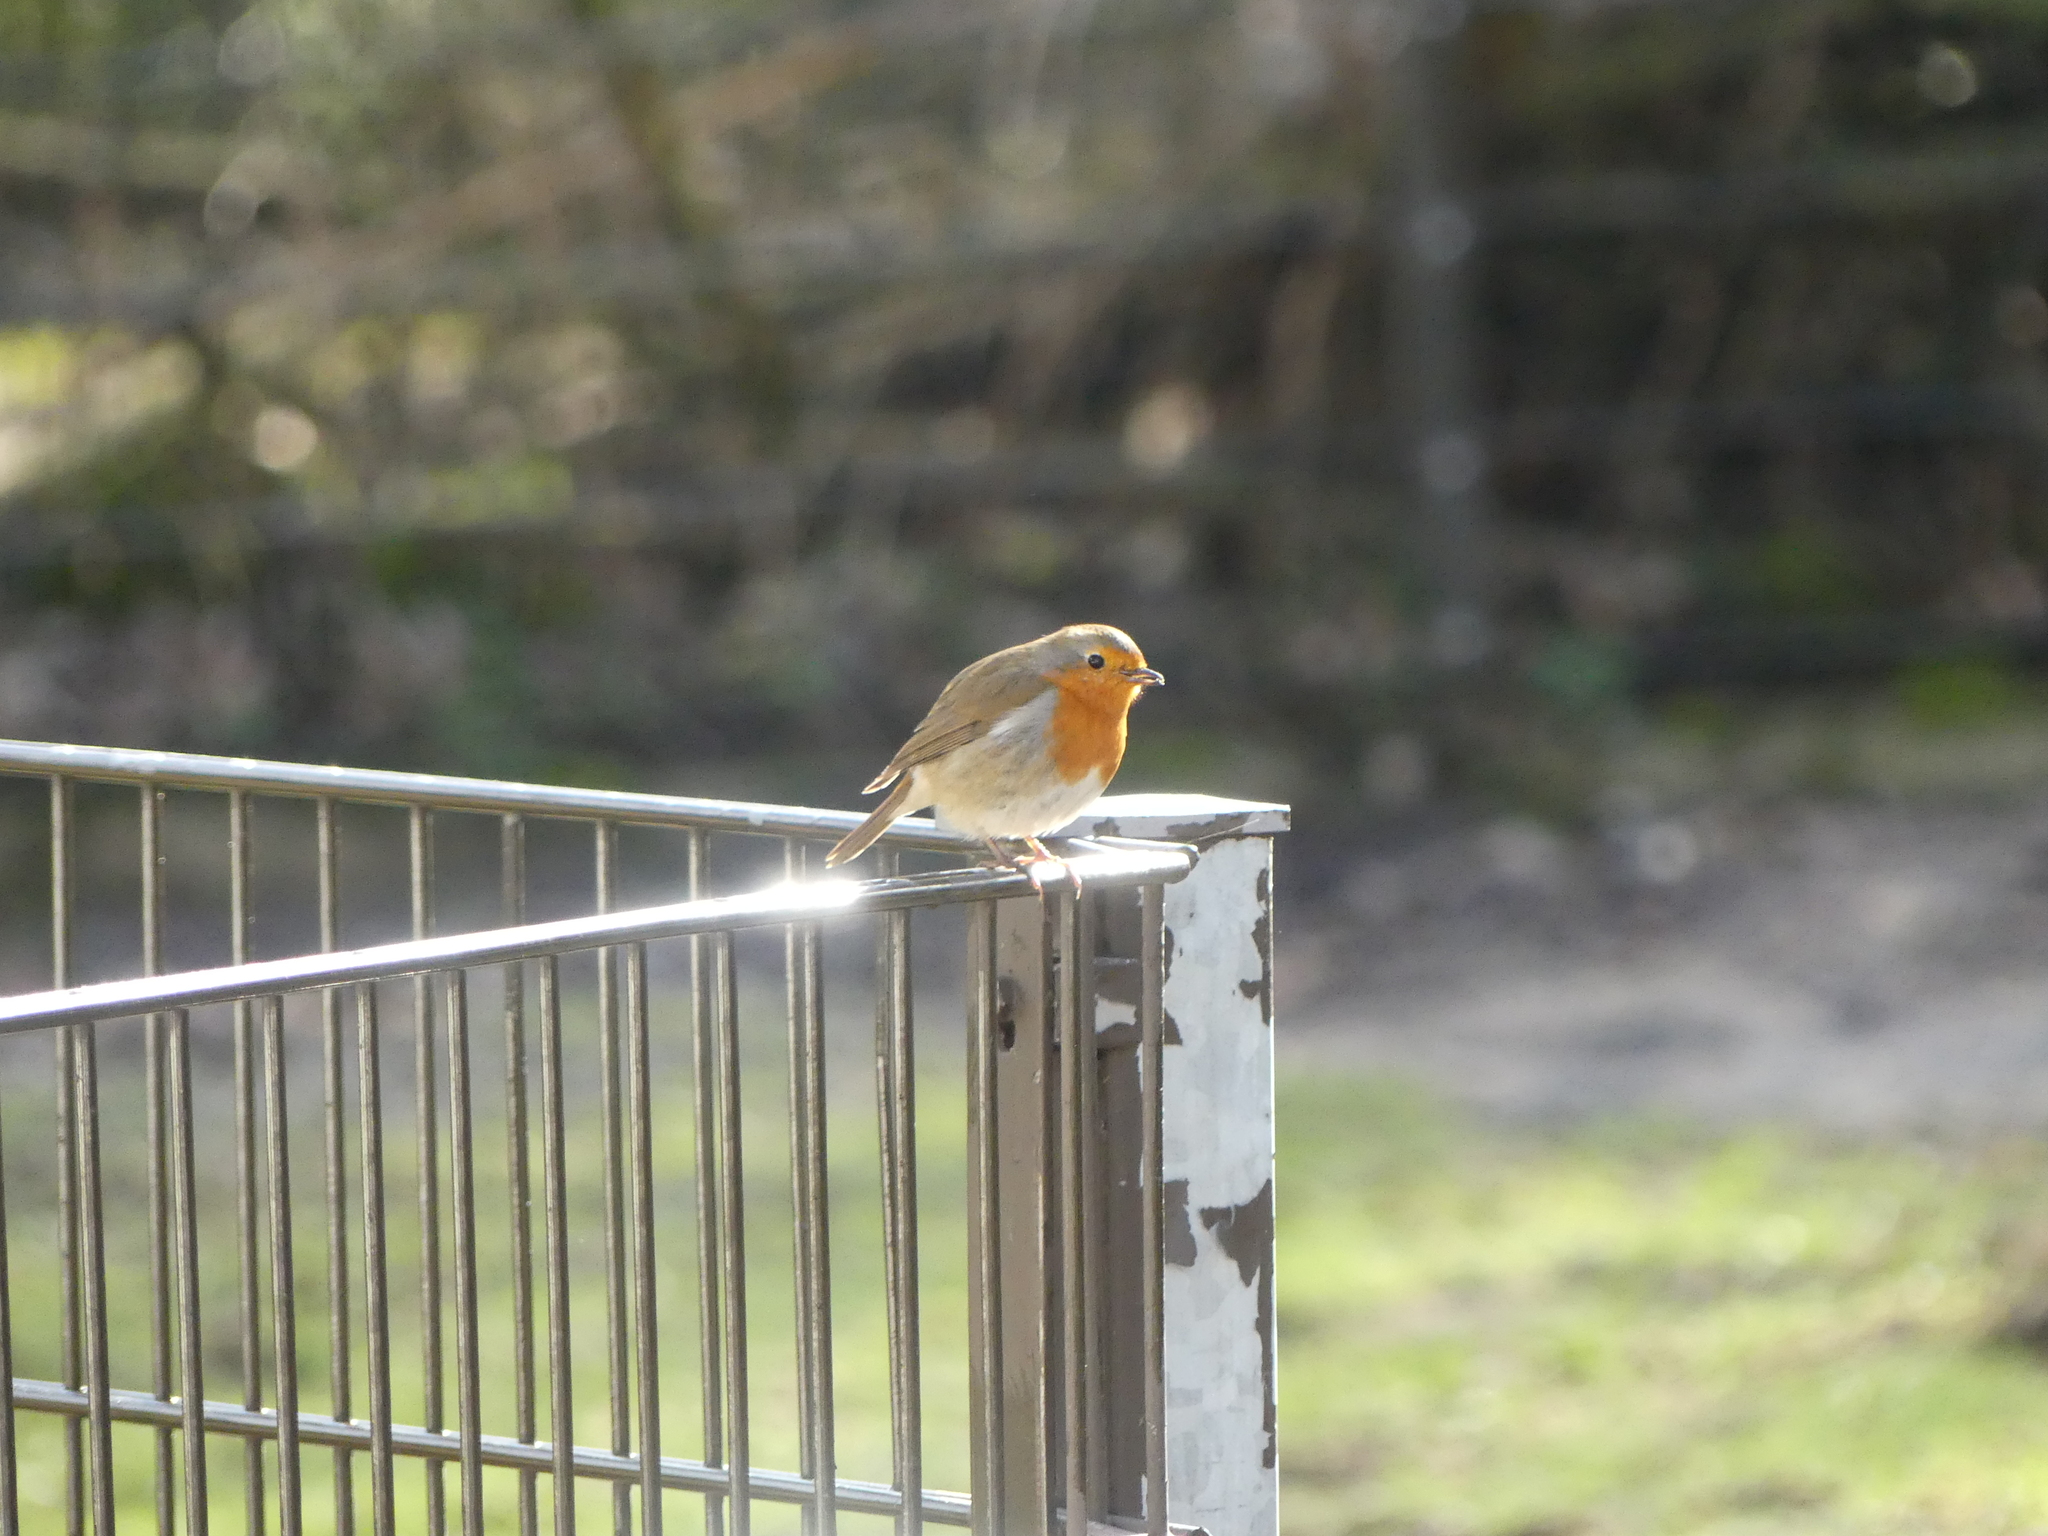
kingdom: Animalia
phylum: Chordata
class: Aves
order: Passeriformes
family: Muscicapidae
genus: Erithacus
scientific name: Erithacus rubecula
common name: European robin
